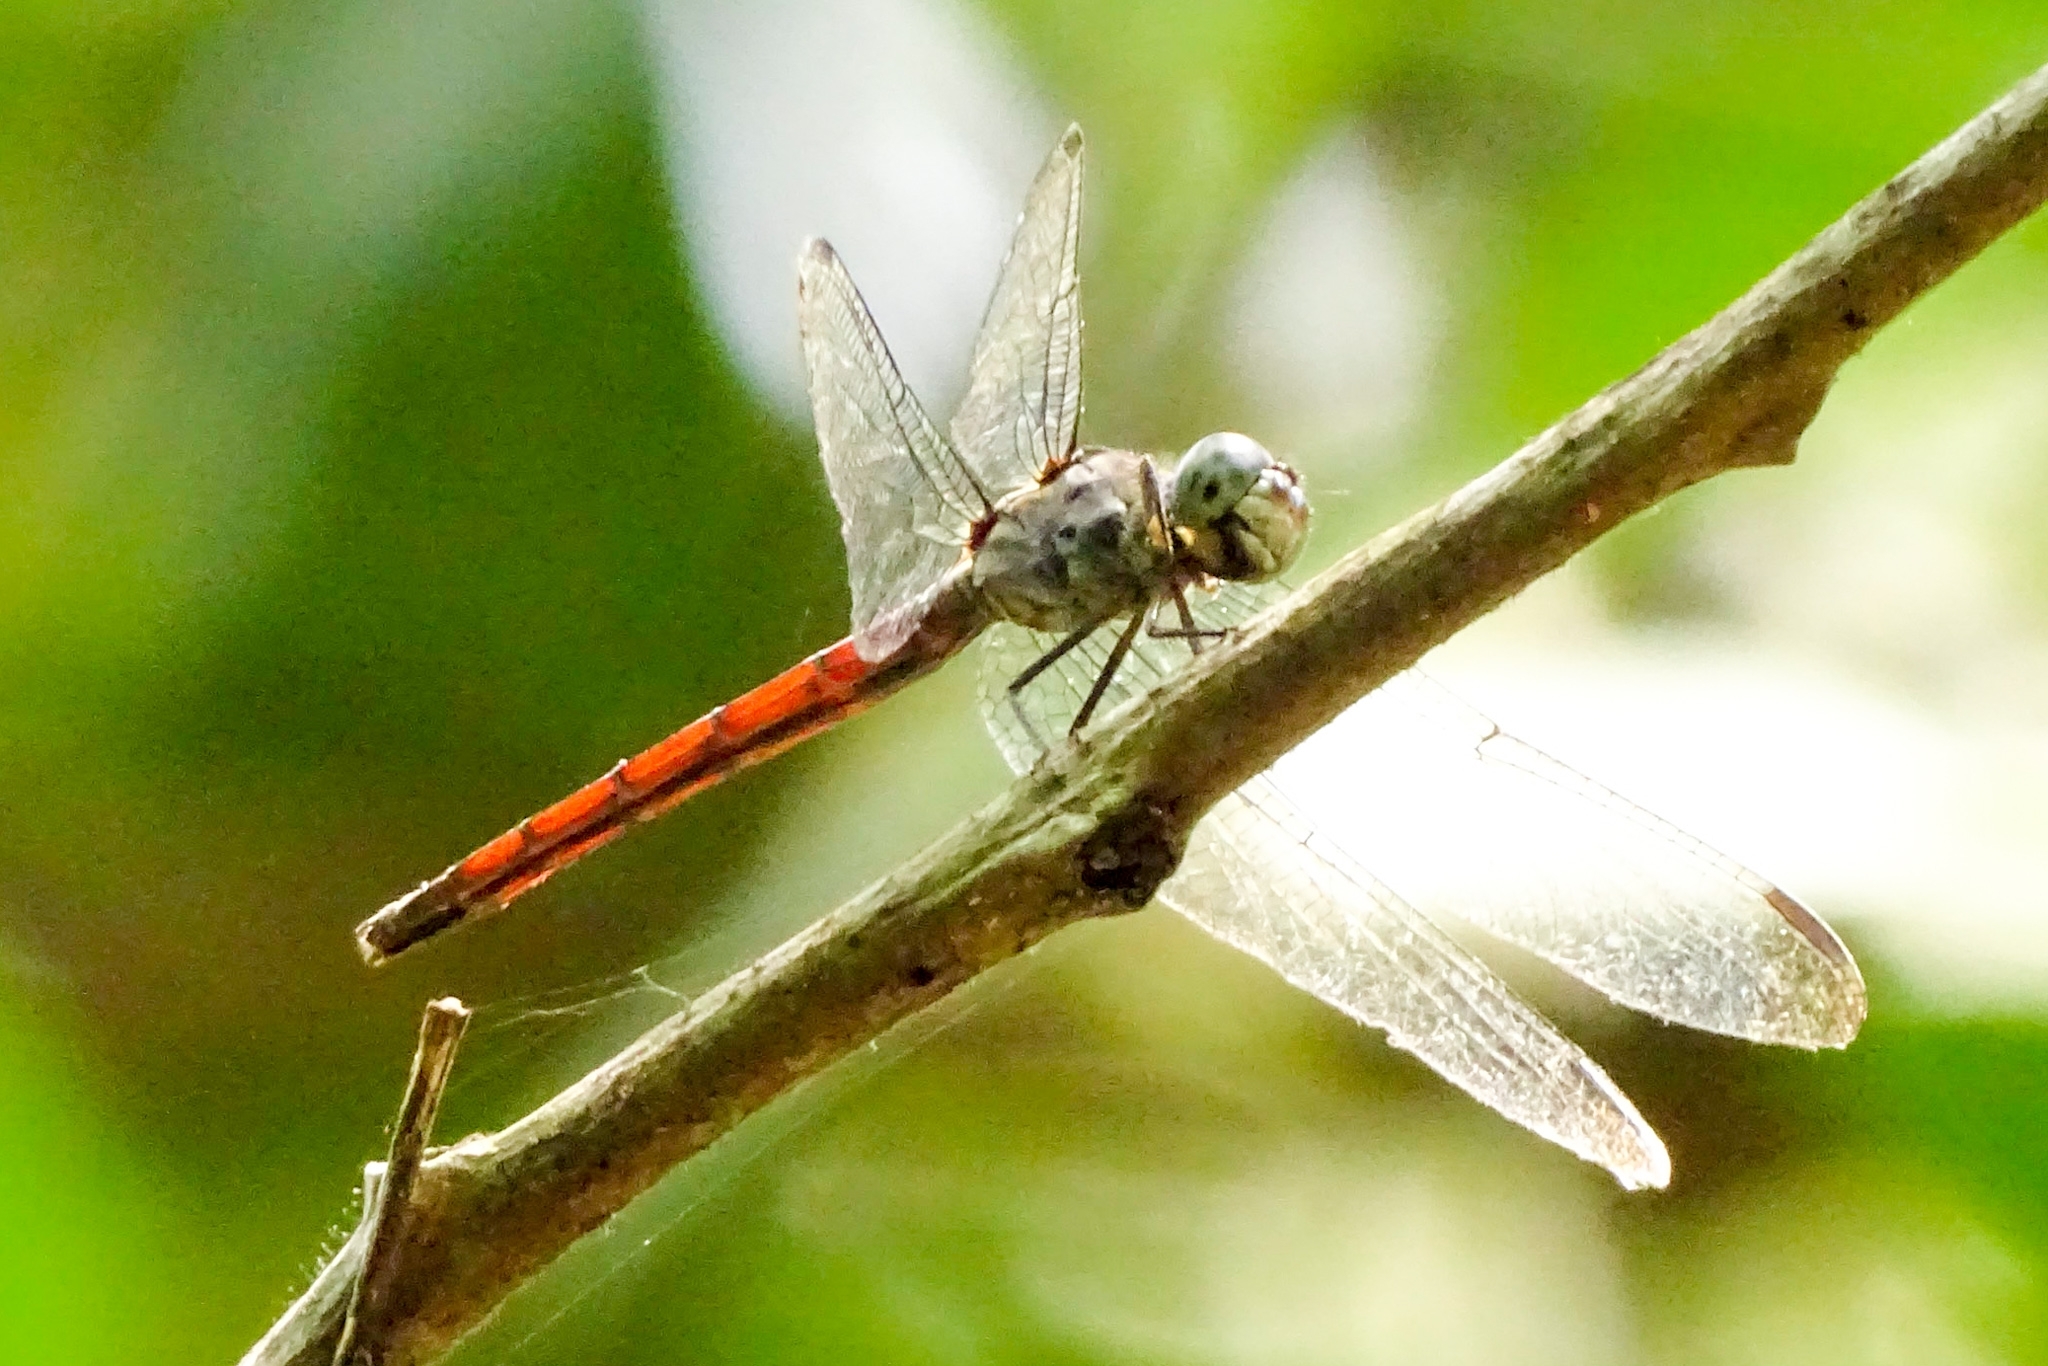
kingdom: Animalia
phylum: Arthropoda
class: Insecta
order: Odonata
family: Libellulidae
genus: Lathrecista
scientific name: Lathrecista asiatica
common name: Scarlet grenadier
